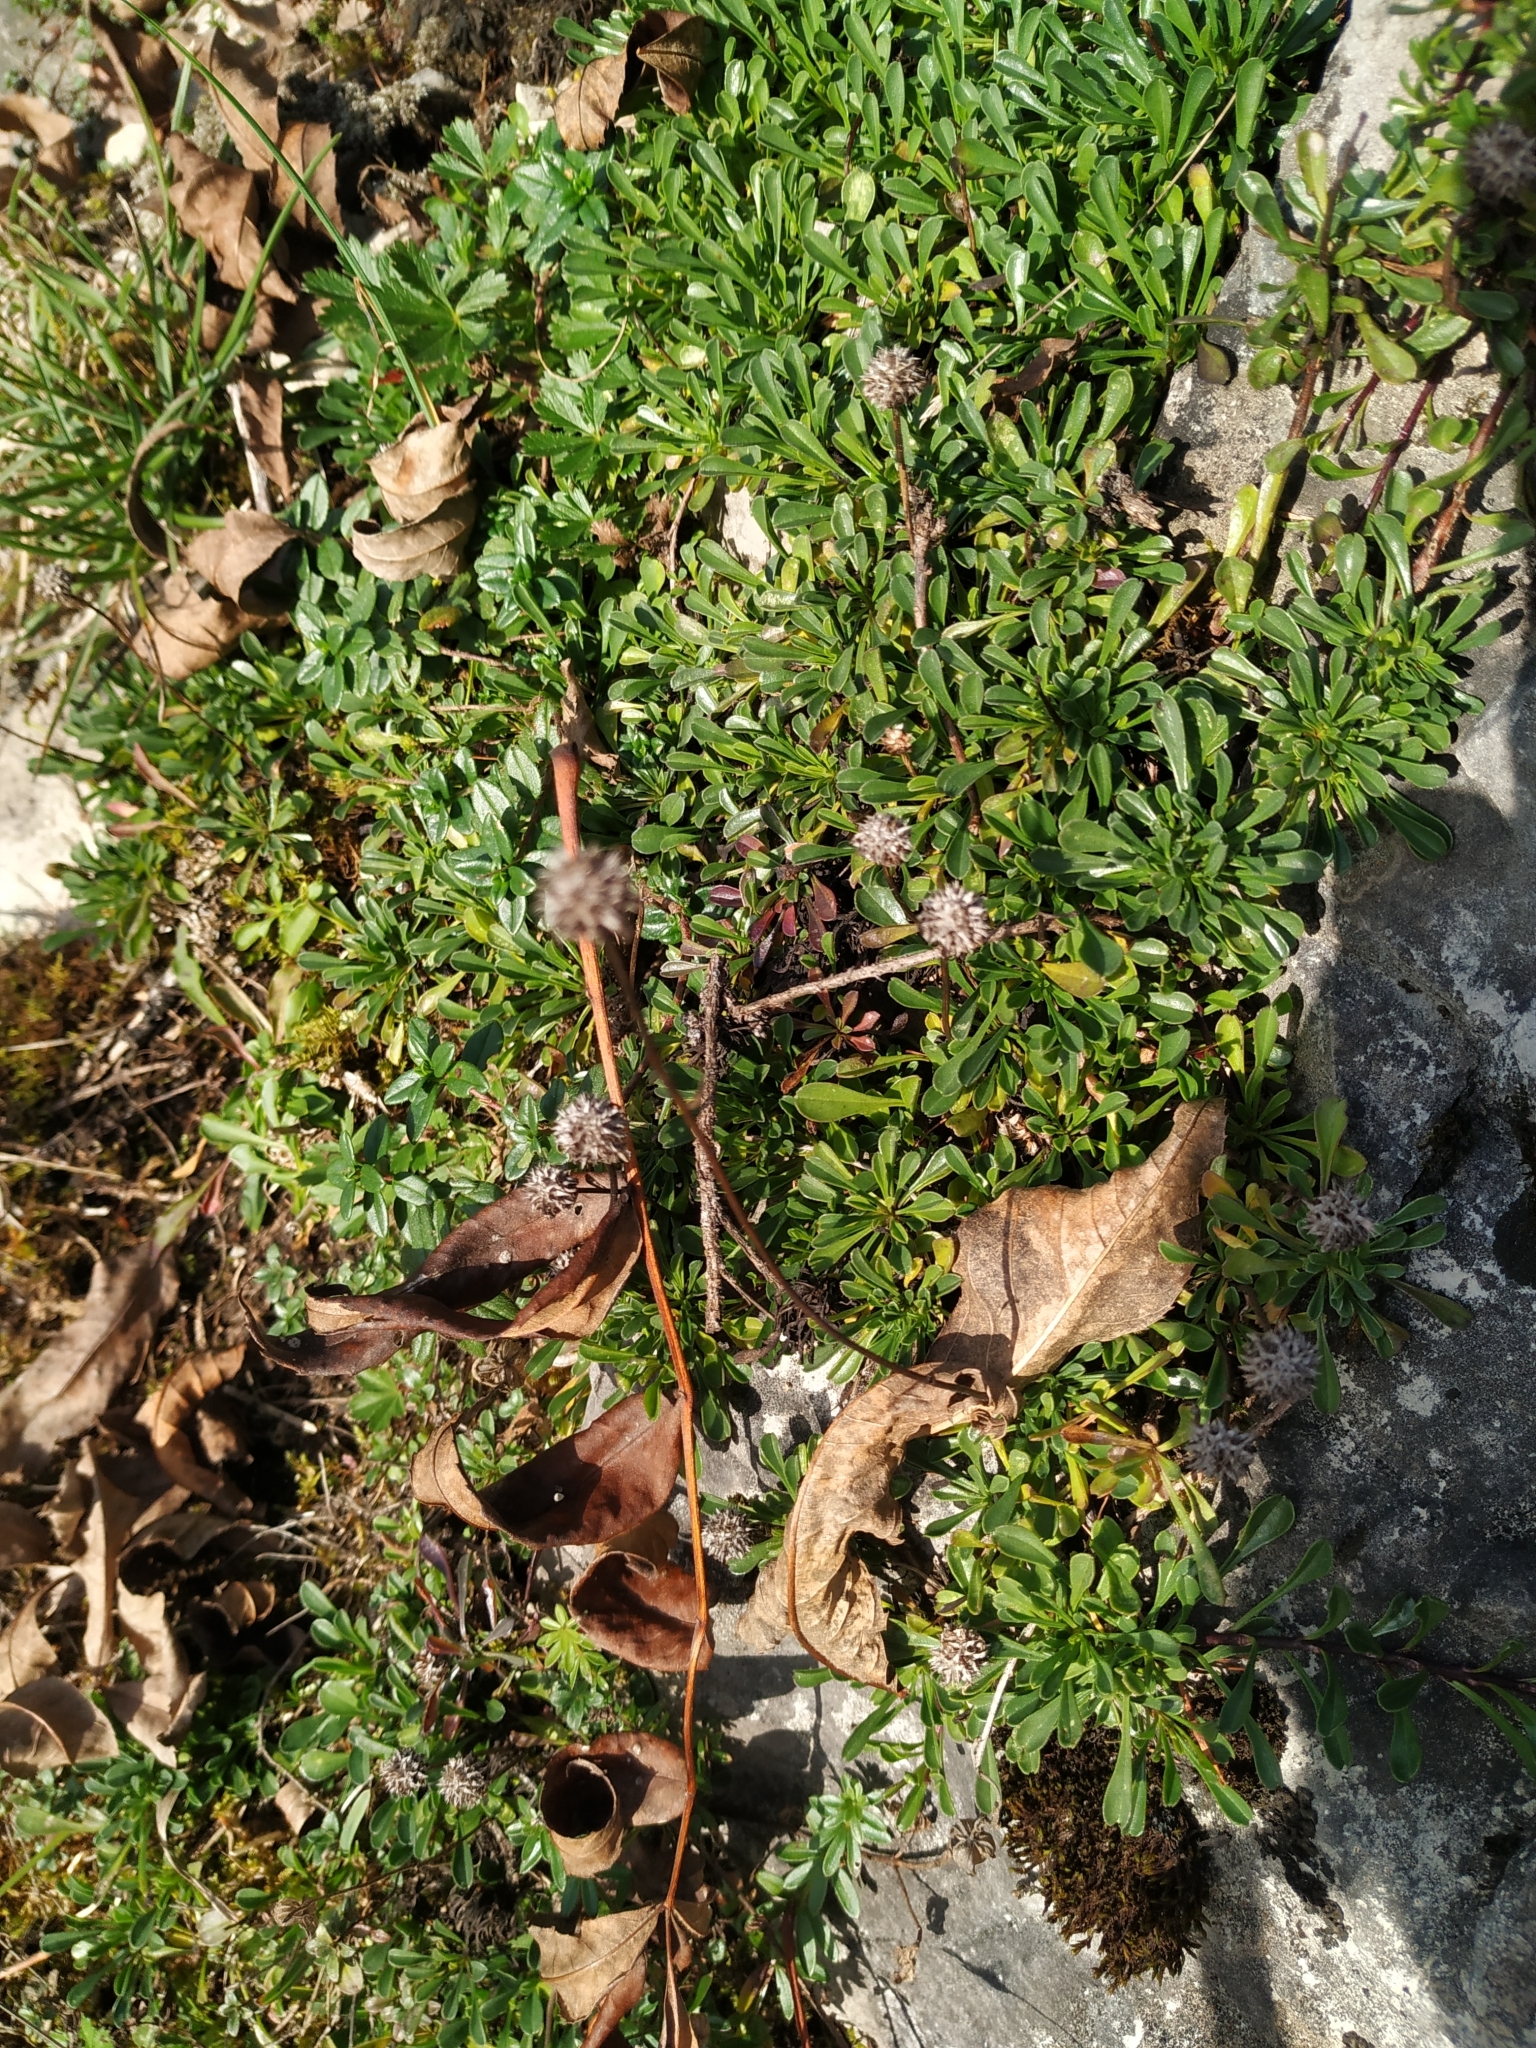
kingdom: Plantae
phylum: Tracheophyta
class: Magnoliopsida
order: Lamiales
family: Plantaginaceae
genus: Globularia
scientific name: Globularia cordifolia
